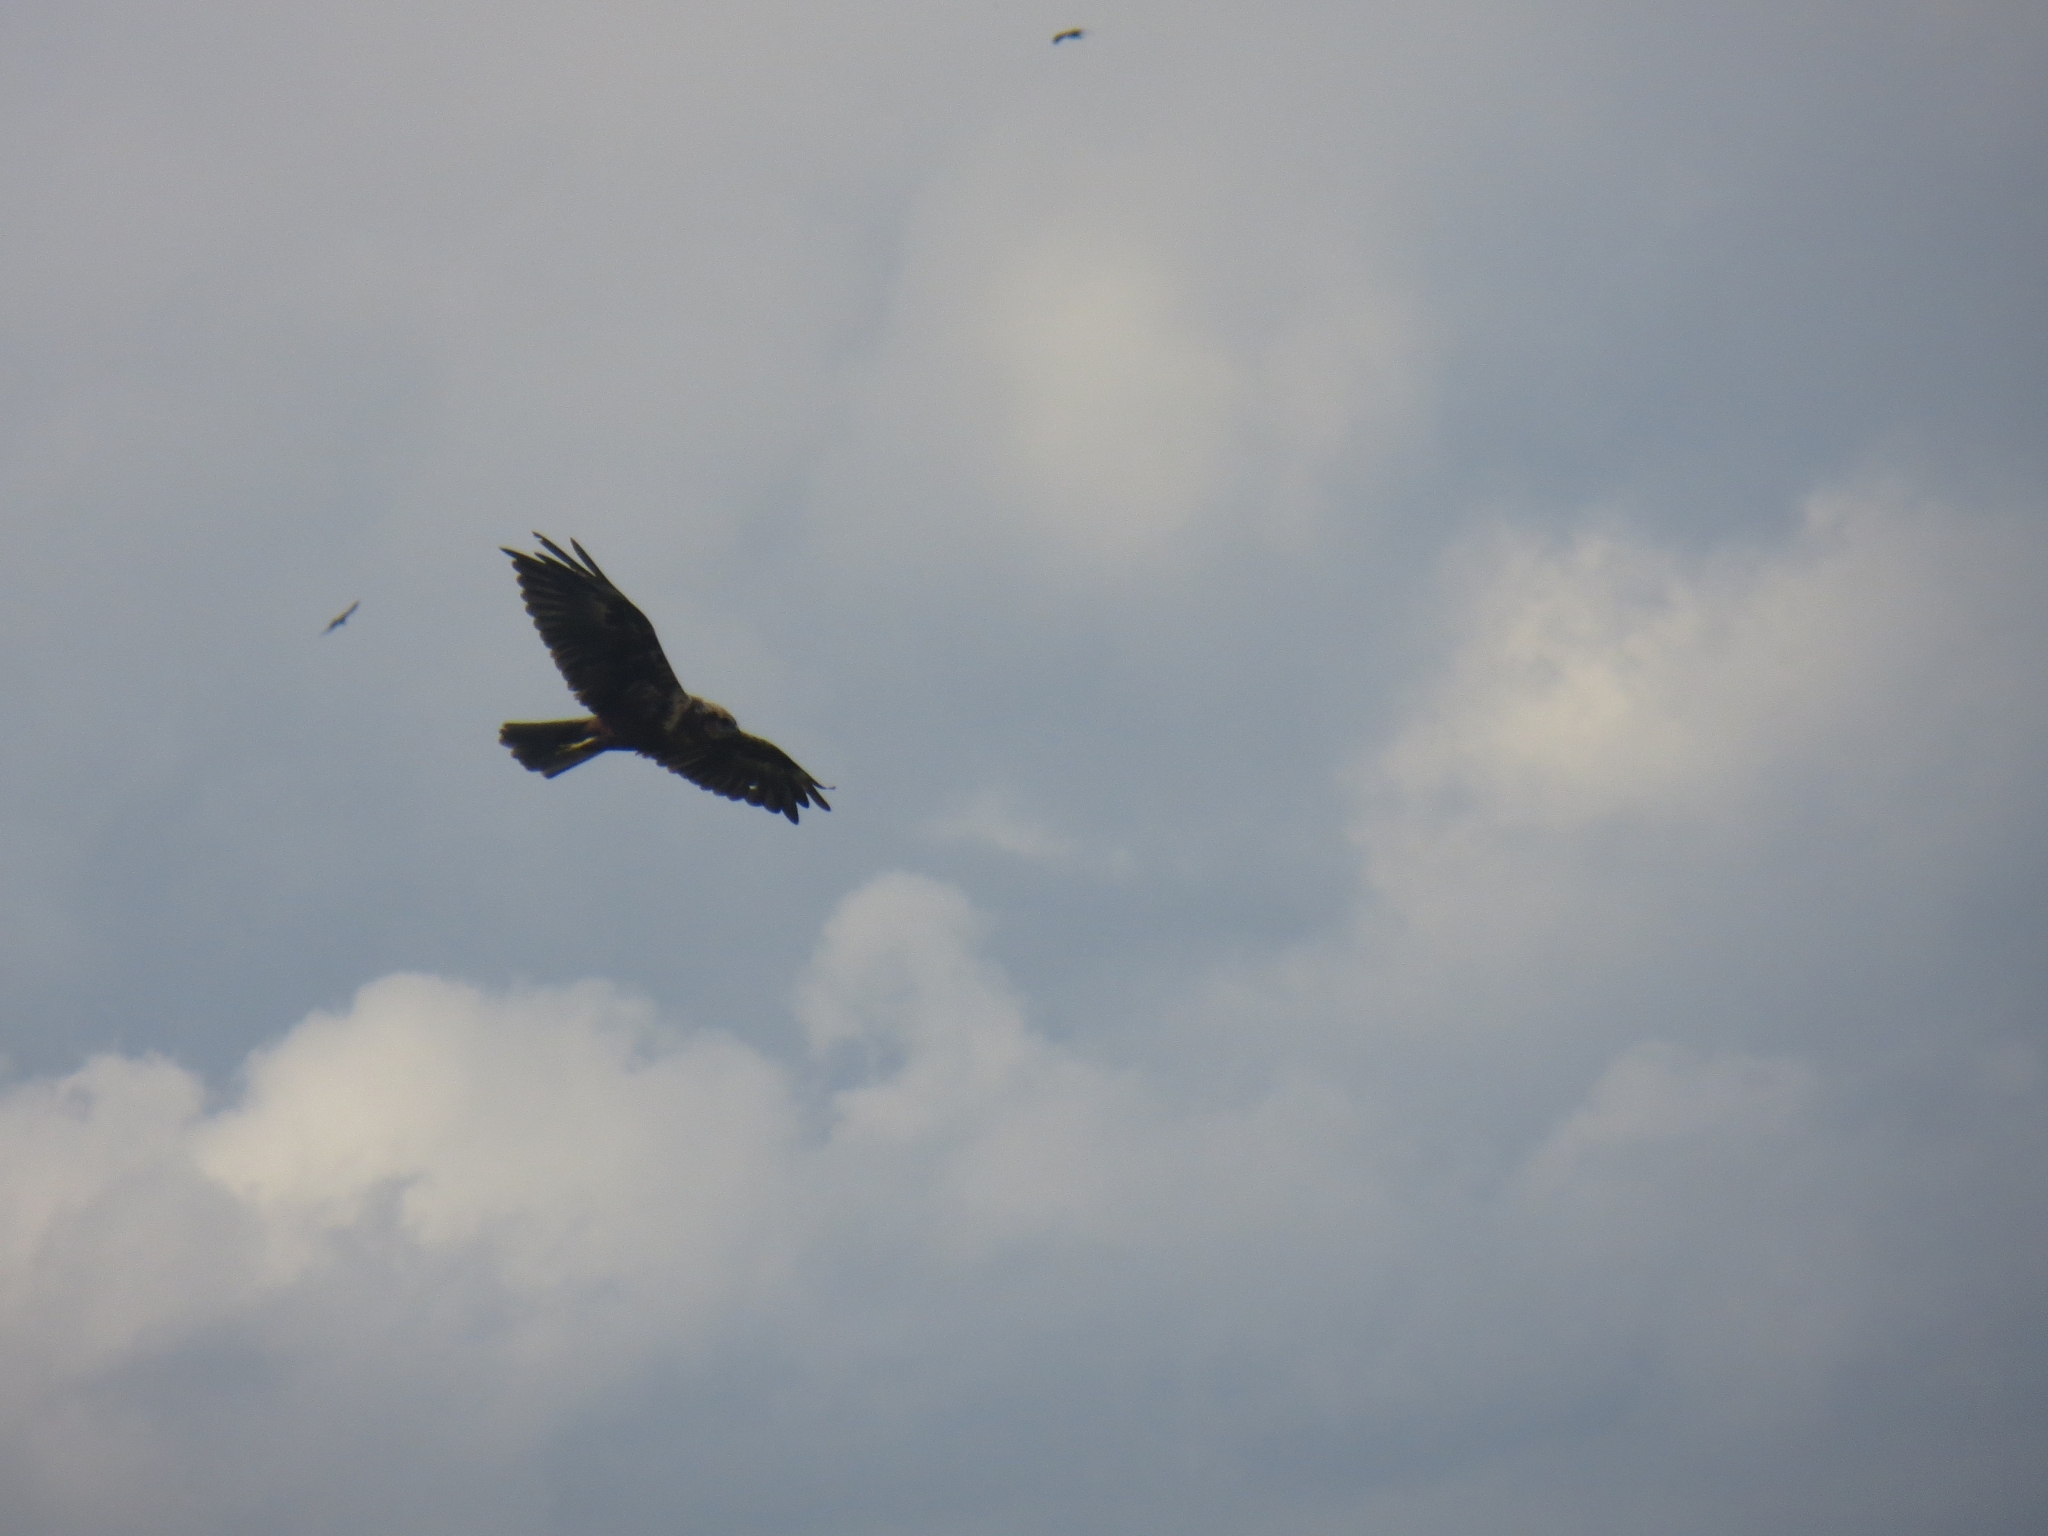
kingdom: Animalia
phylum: Chordata
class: Aves
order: Accipitriformes
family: Accipitridae
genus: Circus
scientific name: Circus aeruginosus
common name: Western marsh harrier
